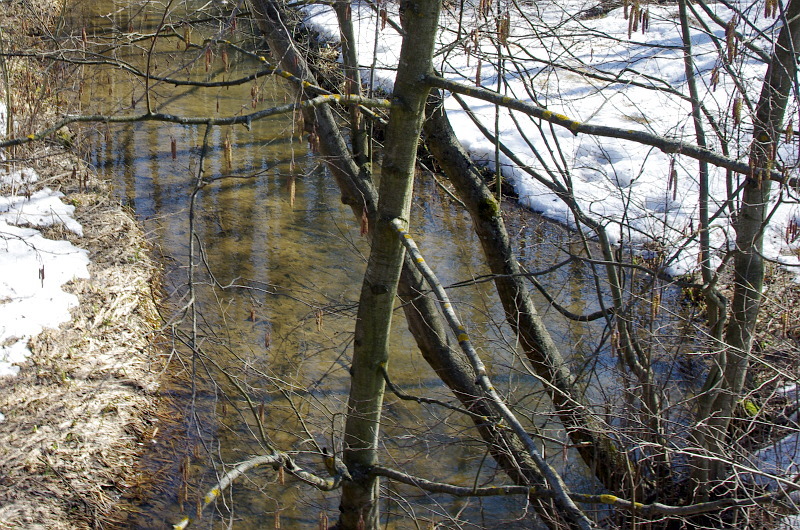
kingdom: Plantae
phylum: Tracheophyta
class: Magnoliopsida
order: Fagales
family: Betulaceae
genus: Alnus
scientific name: Alnus incana
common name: Grey alder
